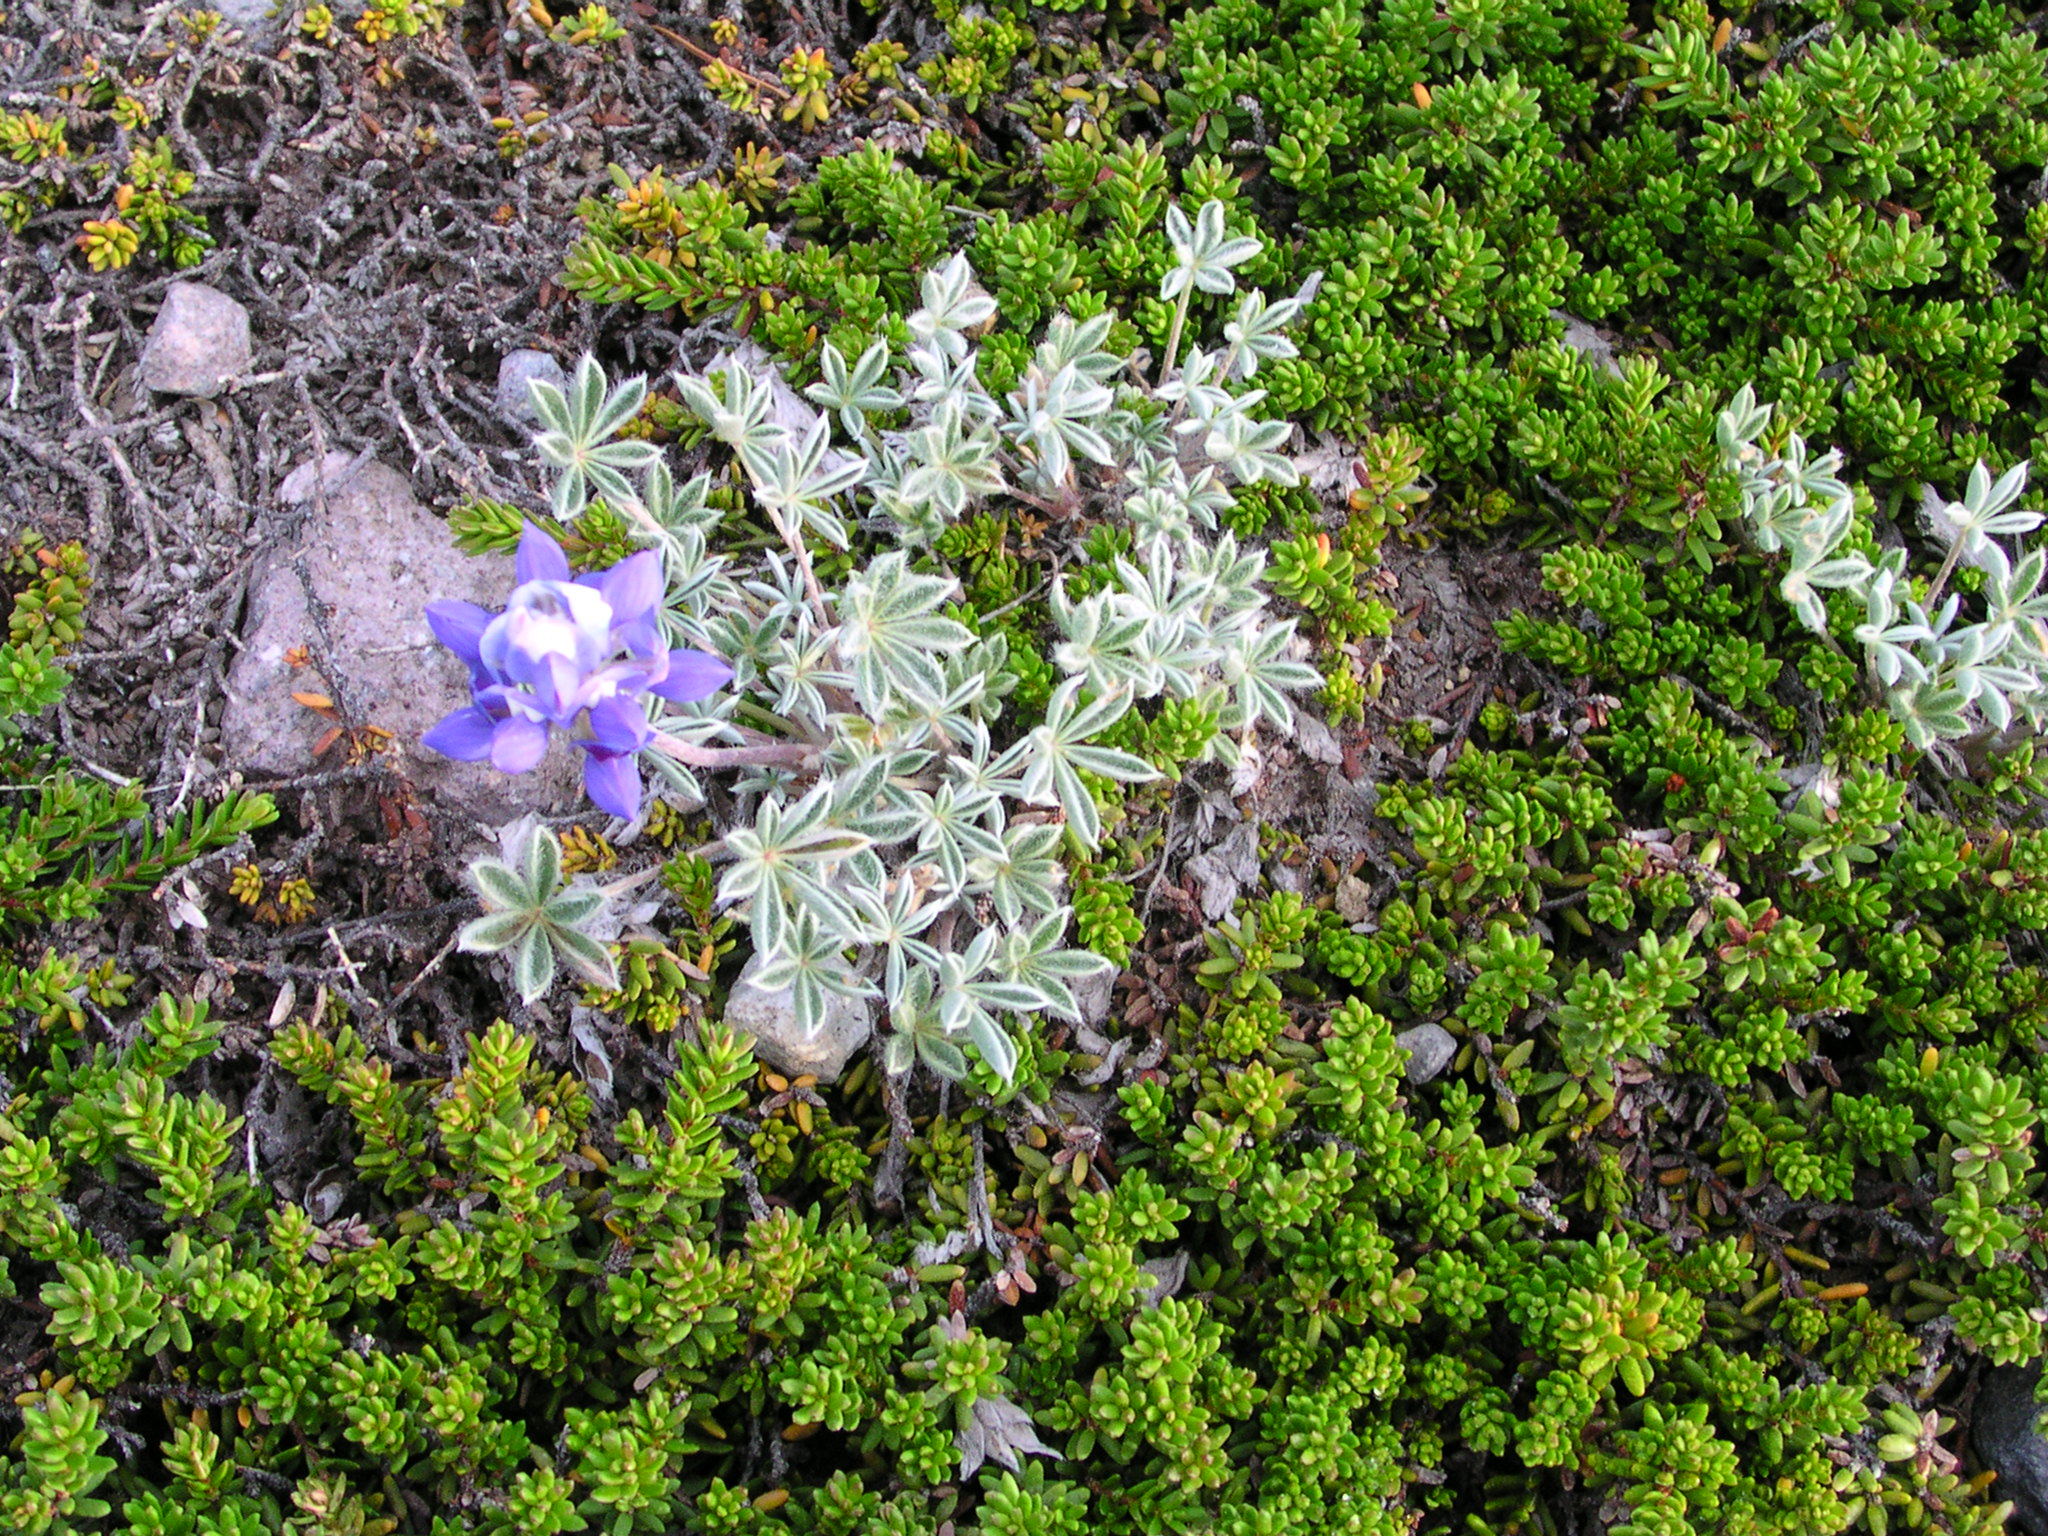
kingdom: Plantae
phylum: Tracheophyta
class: Magnoliopsida
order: Fabales
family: Fabaceae
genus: Lupinus
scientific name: Lupinus sellulus
